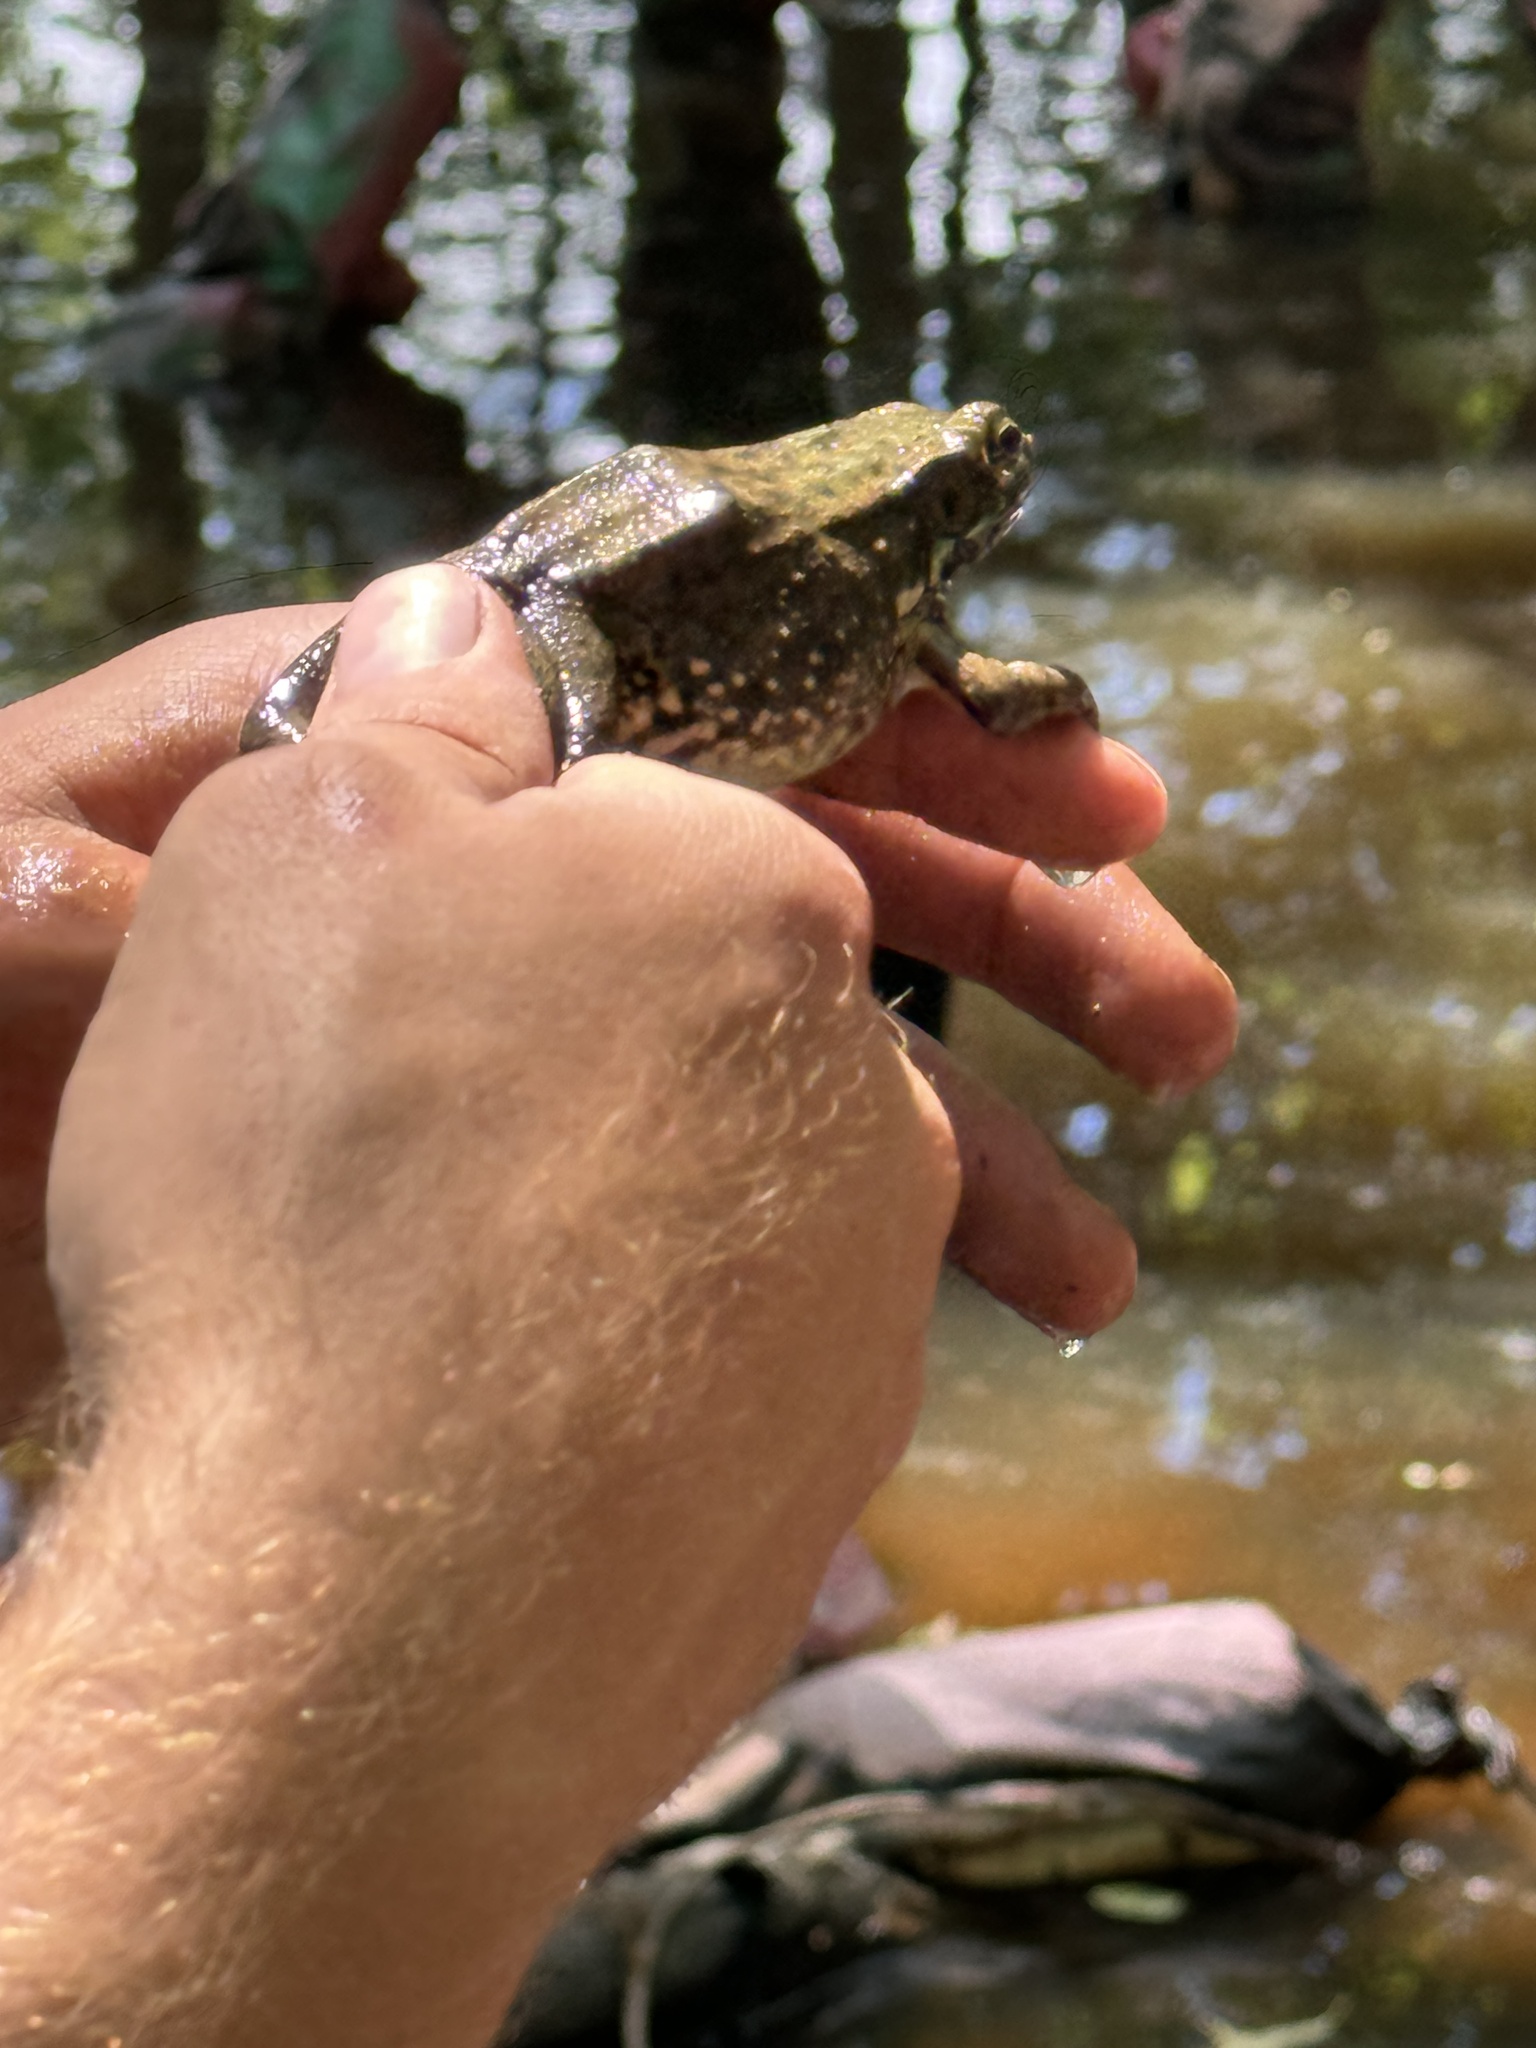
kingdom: Animalia
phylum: Chordata
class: Amphibia
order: Anura
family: Ranidae
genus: Lithobates
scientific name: Lithobates clamitans
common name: Green frog
